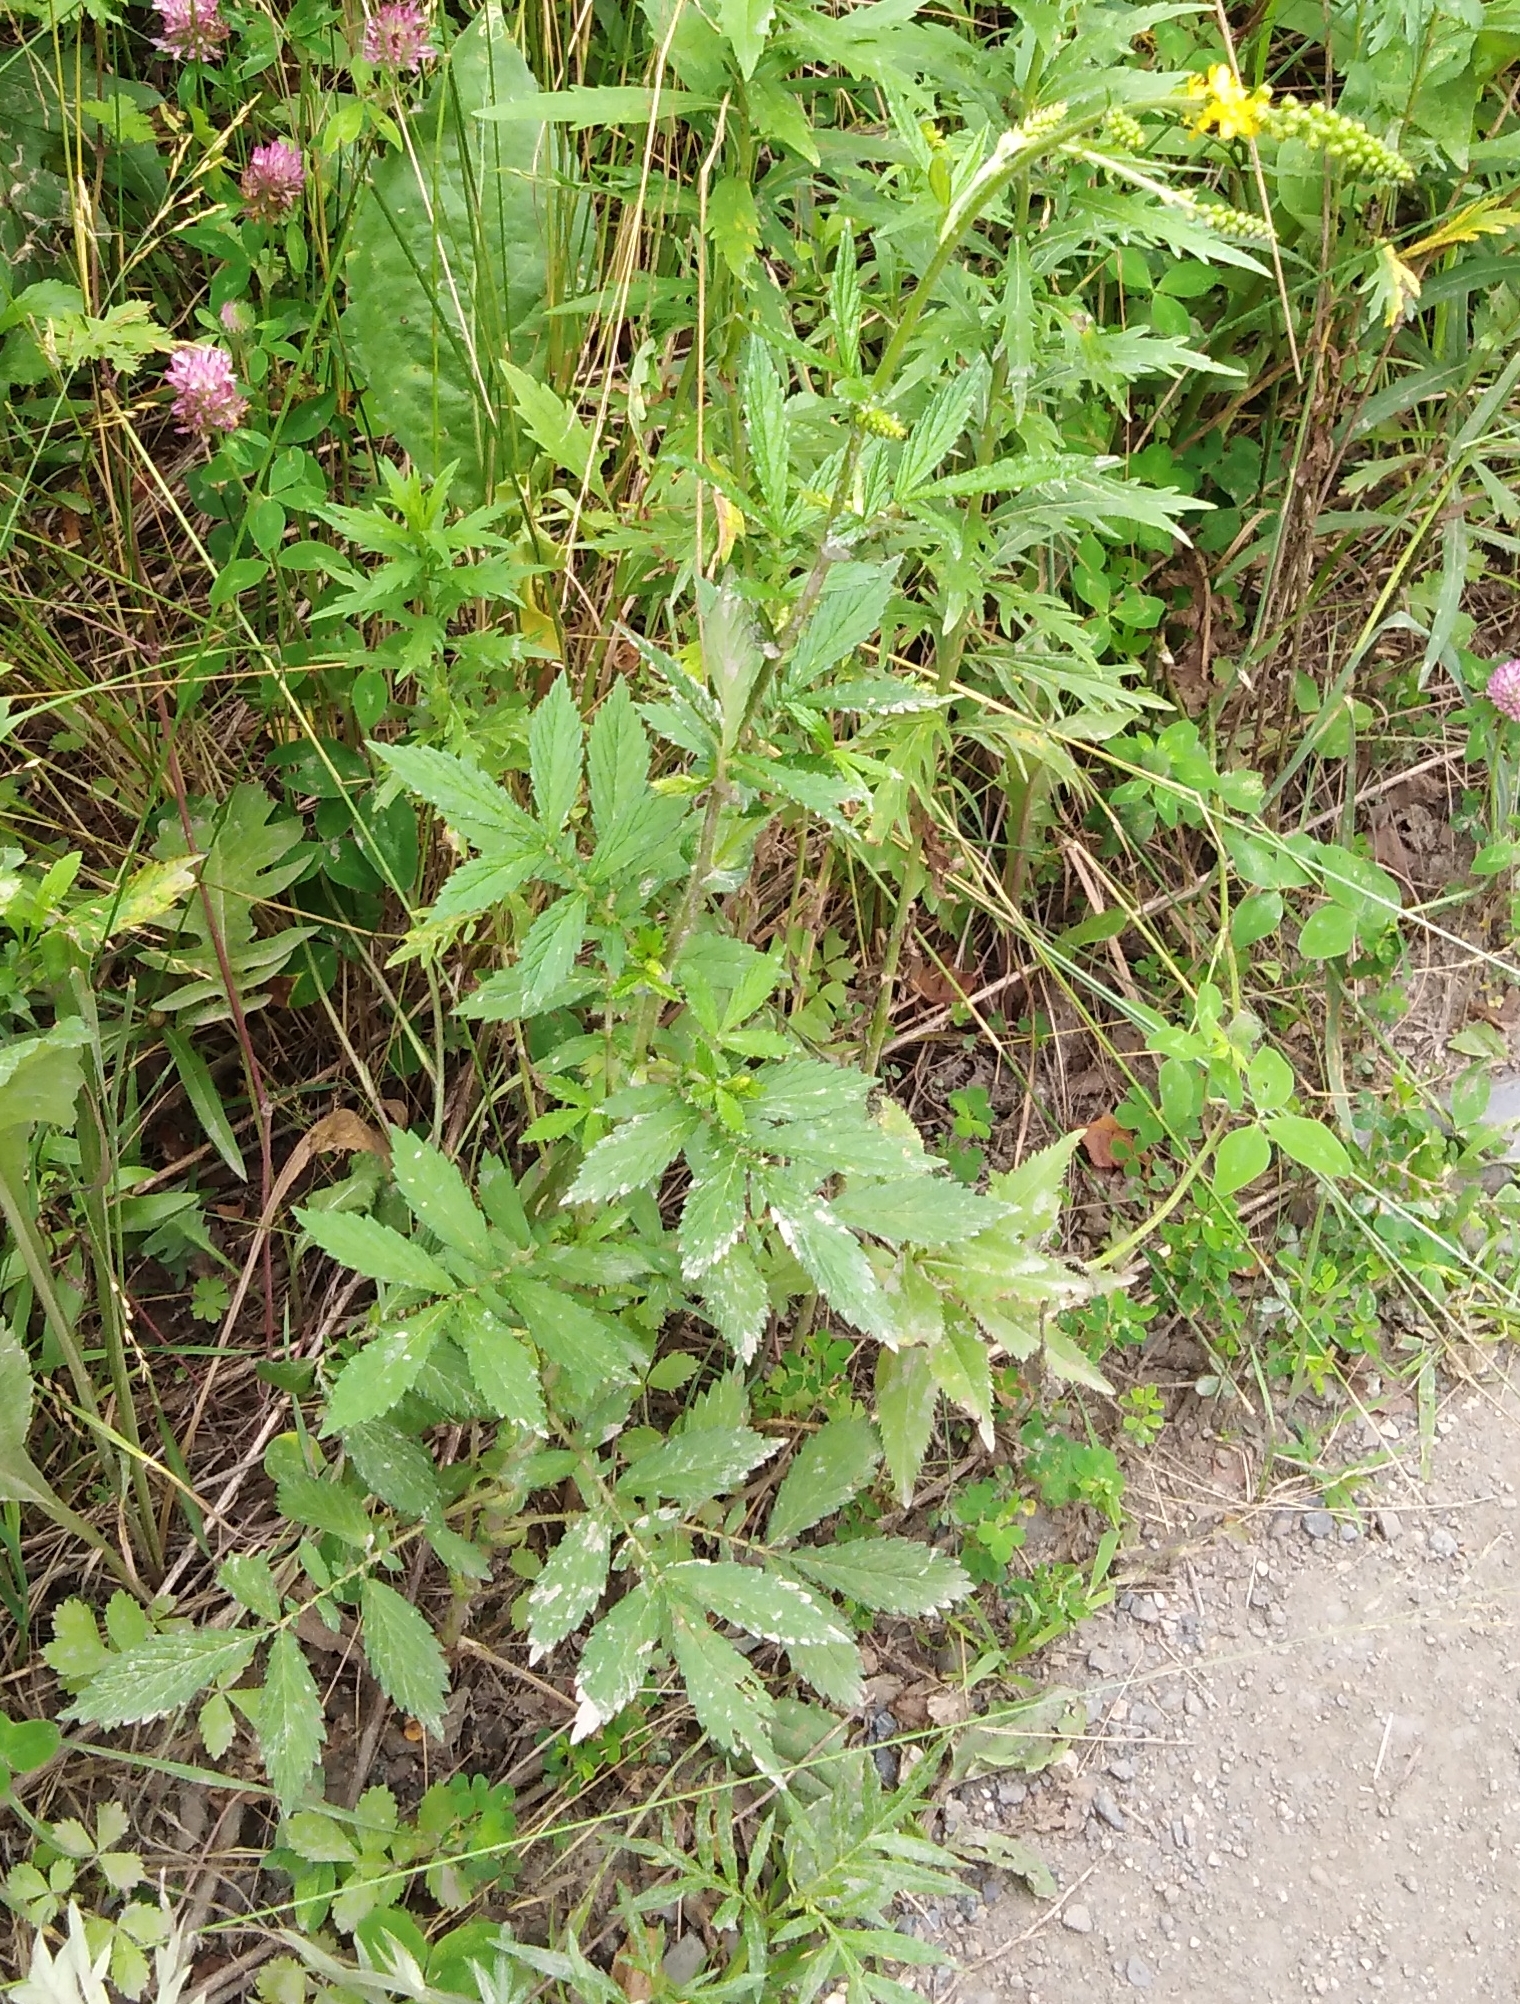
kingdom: Plantae
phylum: Tracheophyta
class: Magnoliopsida
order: Rosales
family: Rosaceae
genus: Agrimonia
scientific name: Agrimonia striata
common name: Britton's agrimony
